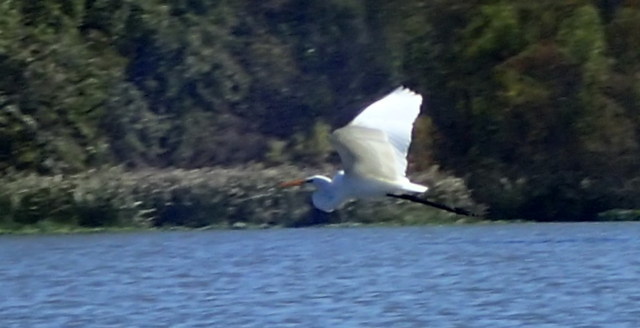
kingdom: Animalia
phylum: Chordata
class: Aves
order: Pelecaniformes
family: Ardeidae
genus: Ardea
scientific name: Ardea alba
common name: Great egret
